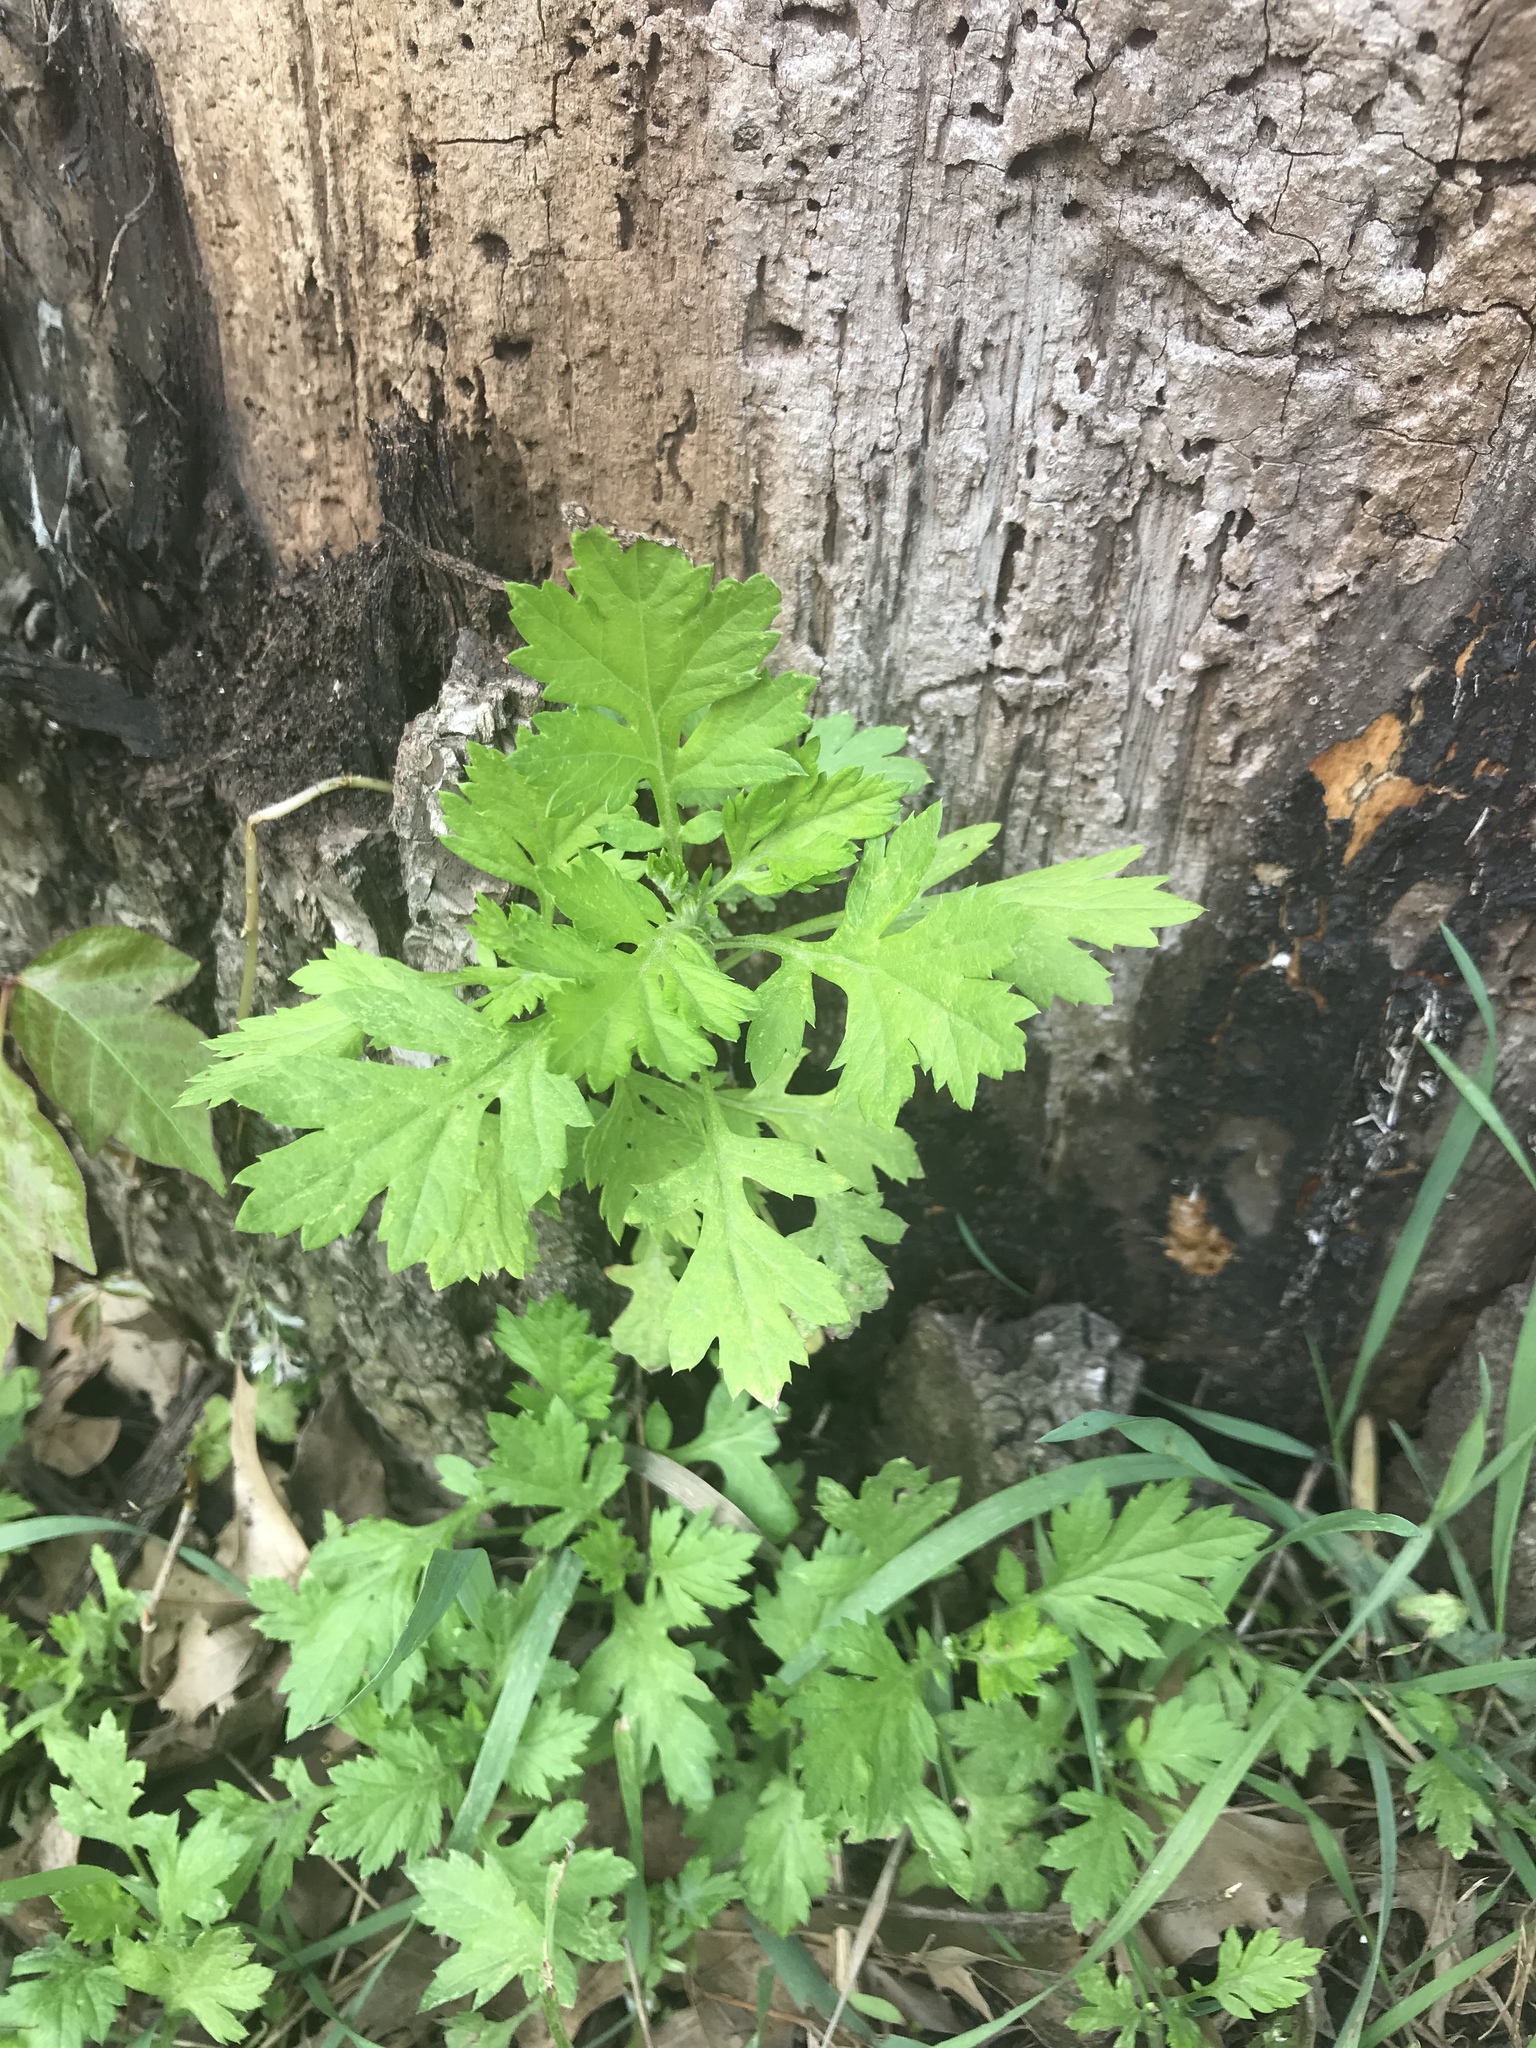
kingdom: Plantae
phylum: Tracheophyta
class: Magnoliopsida
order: Asterales
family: Asteraceae
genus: Artemisia
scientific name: Artemisia vulgaris
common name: Mugwort
